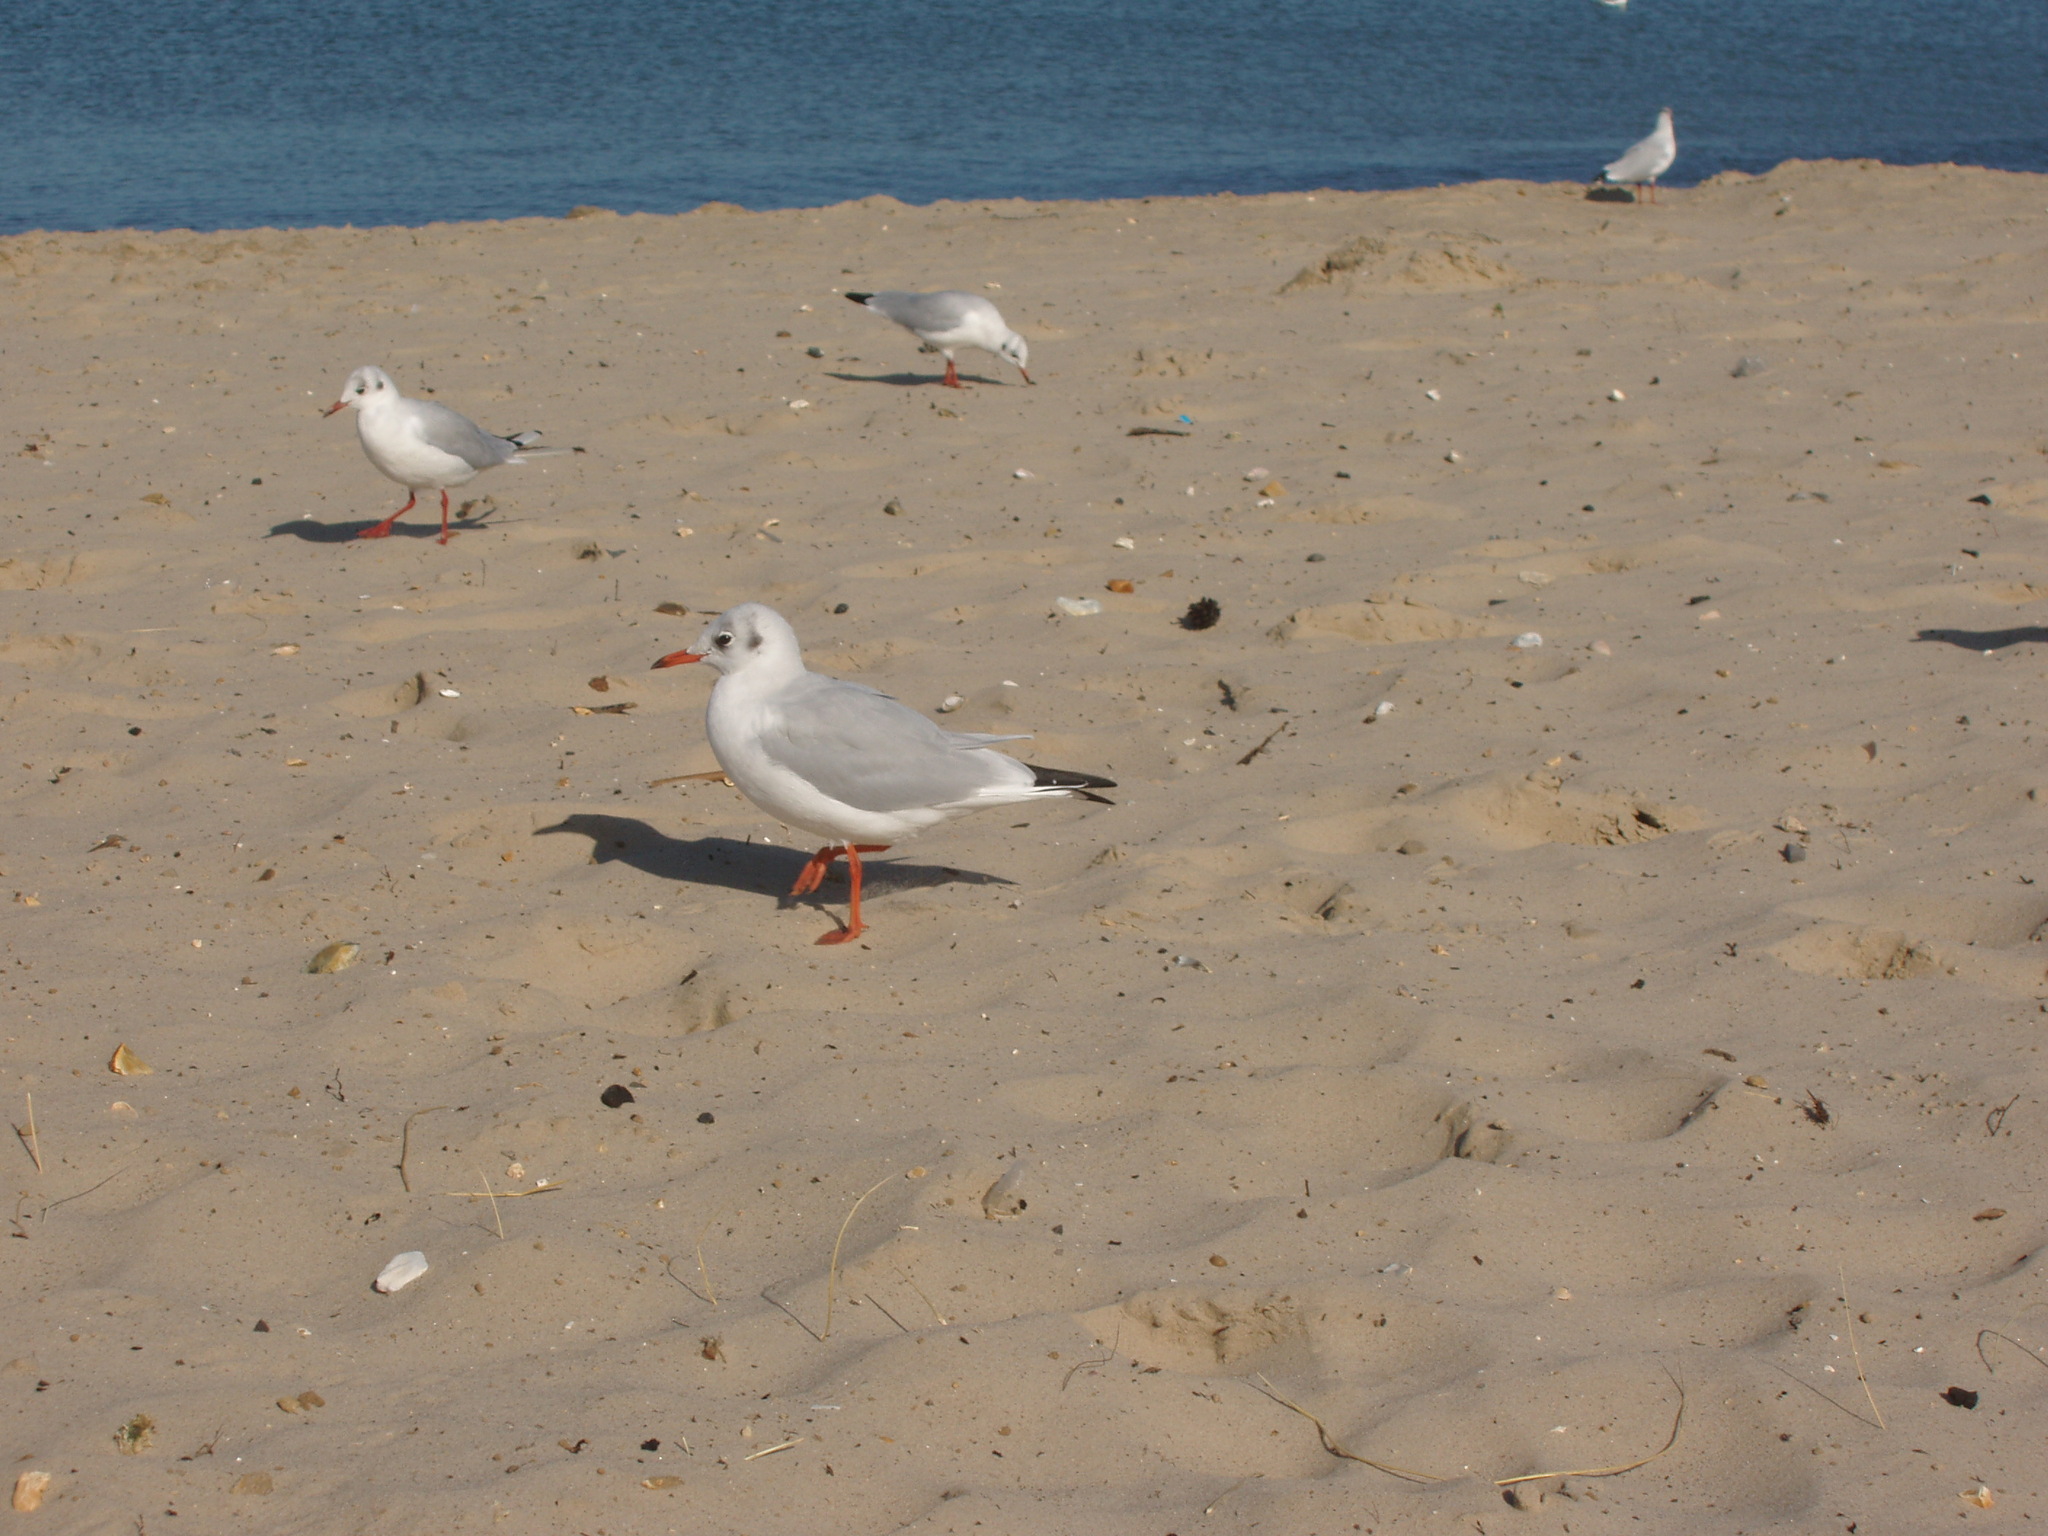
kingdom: Animalia
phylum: Chordata
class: Aves
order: Charadriiformes
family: Laridae
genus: Chroicocephalus
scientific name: Chroicocephalus ridibundus
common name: Black-headed gull
